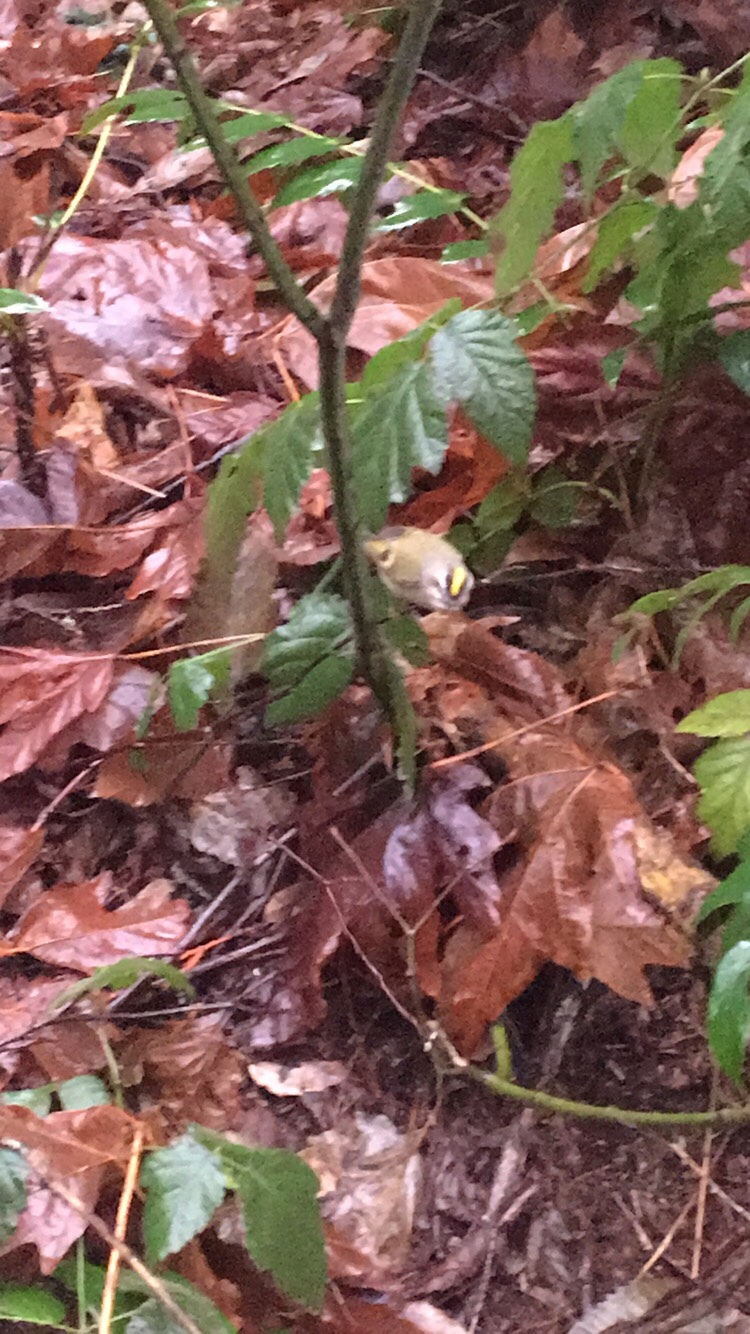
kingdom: Animalia
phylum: Chordata
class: Aves
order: Passeriformes
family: Regulidae
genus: Regulus
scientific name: Regulus satrapa
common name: Golden-crowned kinglet
